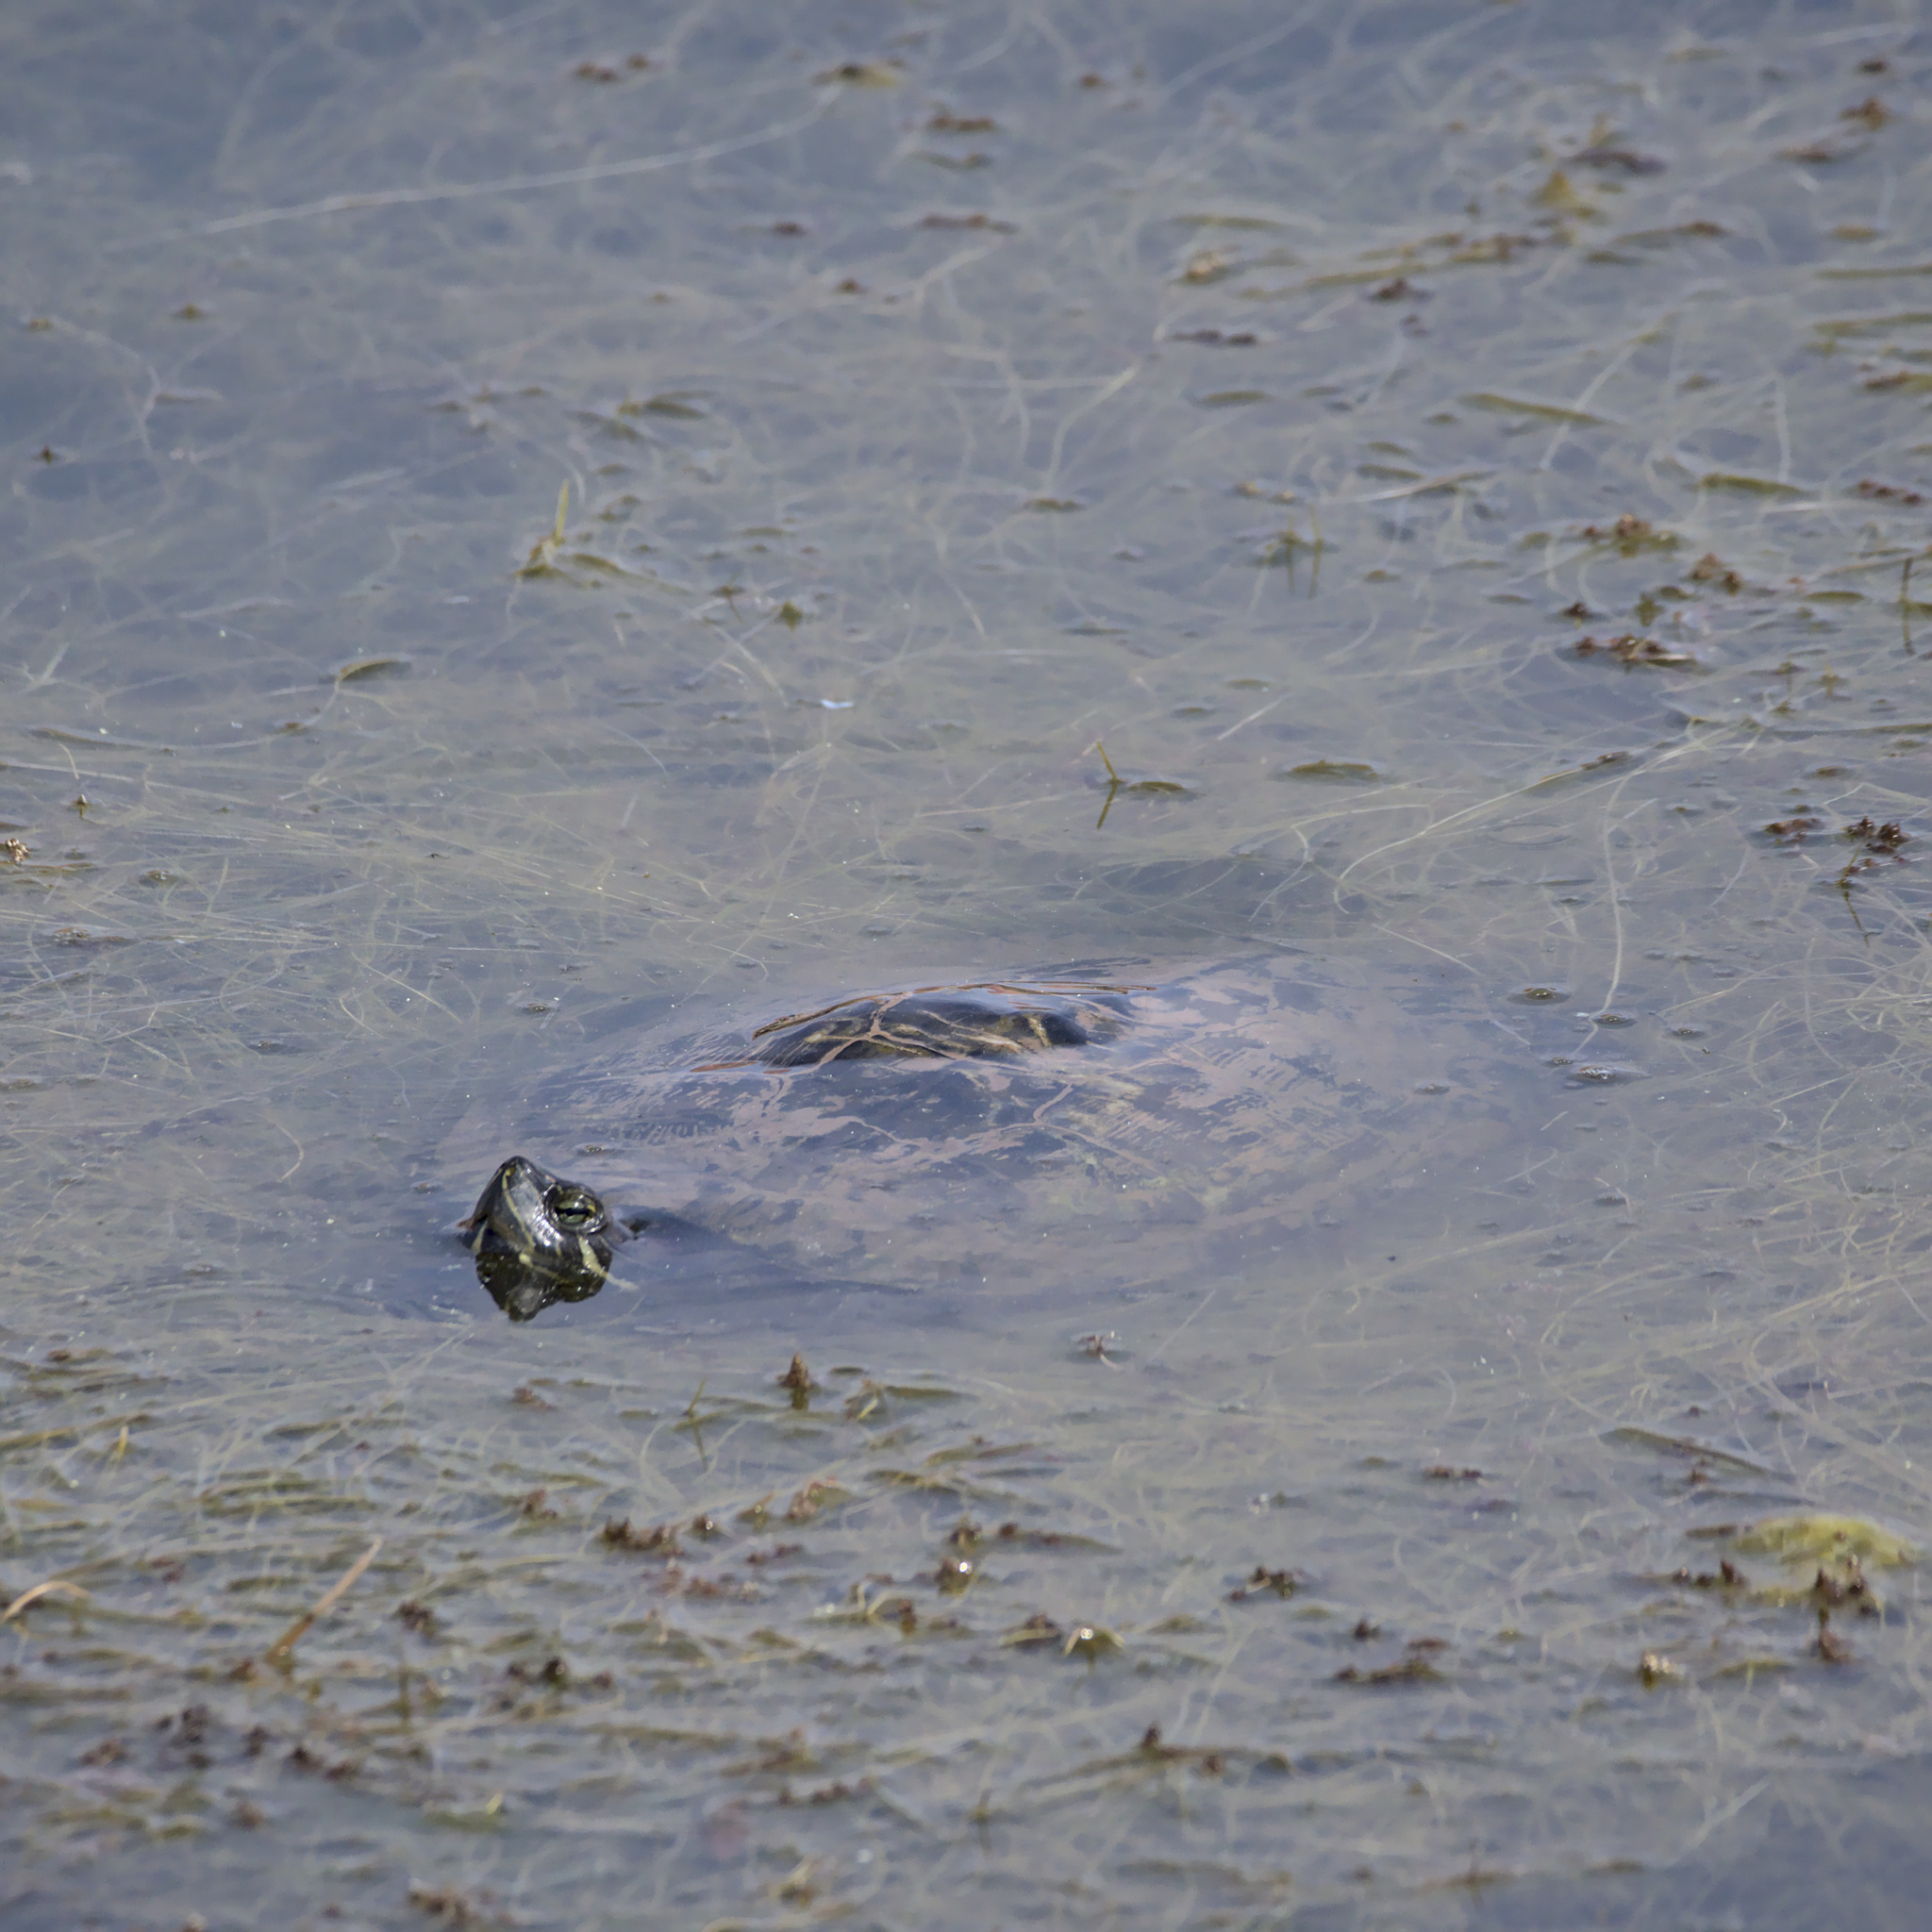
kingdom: Animalia
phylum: Chordata
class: Testudines
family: Emydidae
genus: Trachemys
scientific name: Trachemys scripta
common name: Slider
